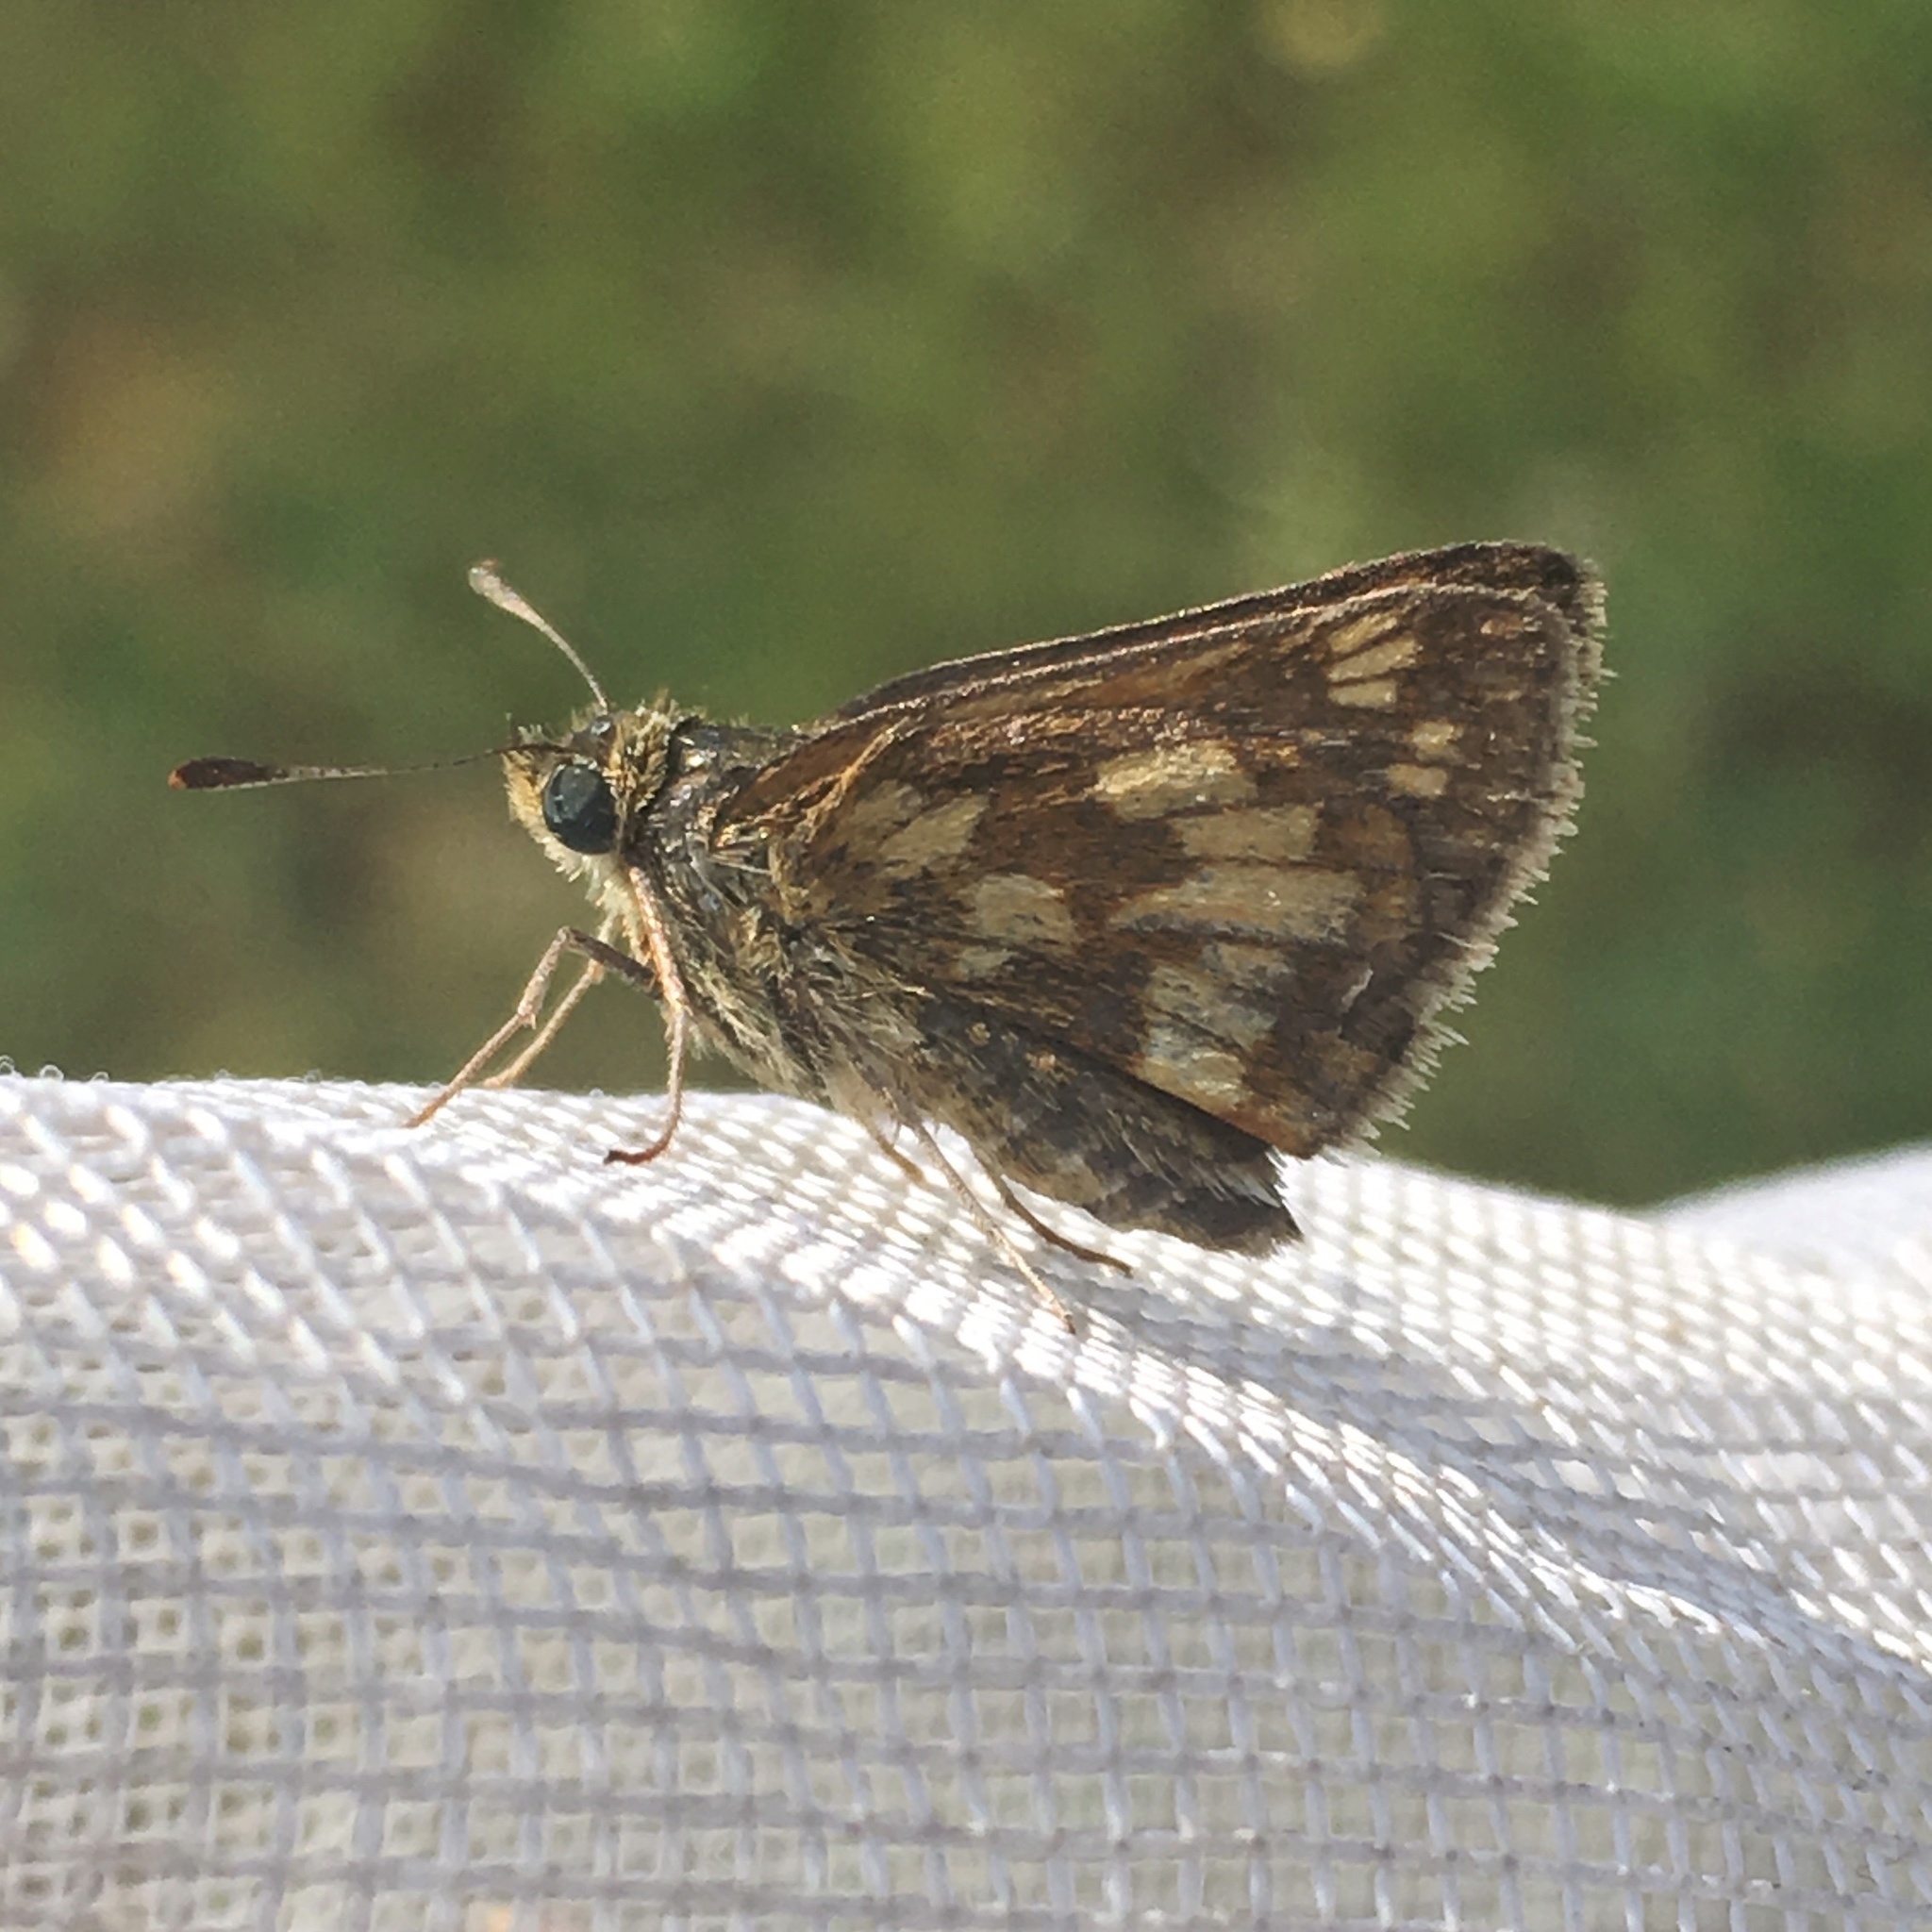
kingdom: Animalia
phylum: Arthropoda
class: Insecta
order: Lepidoptera
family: Hesperiidae
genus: Polites
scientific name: Polites coras
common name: Peck's skipper
